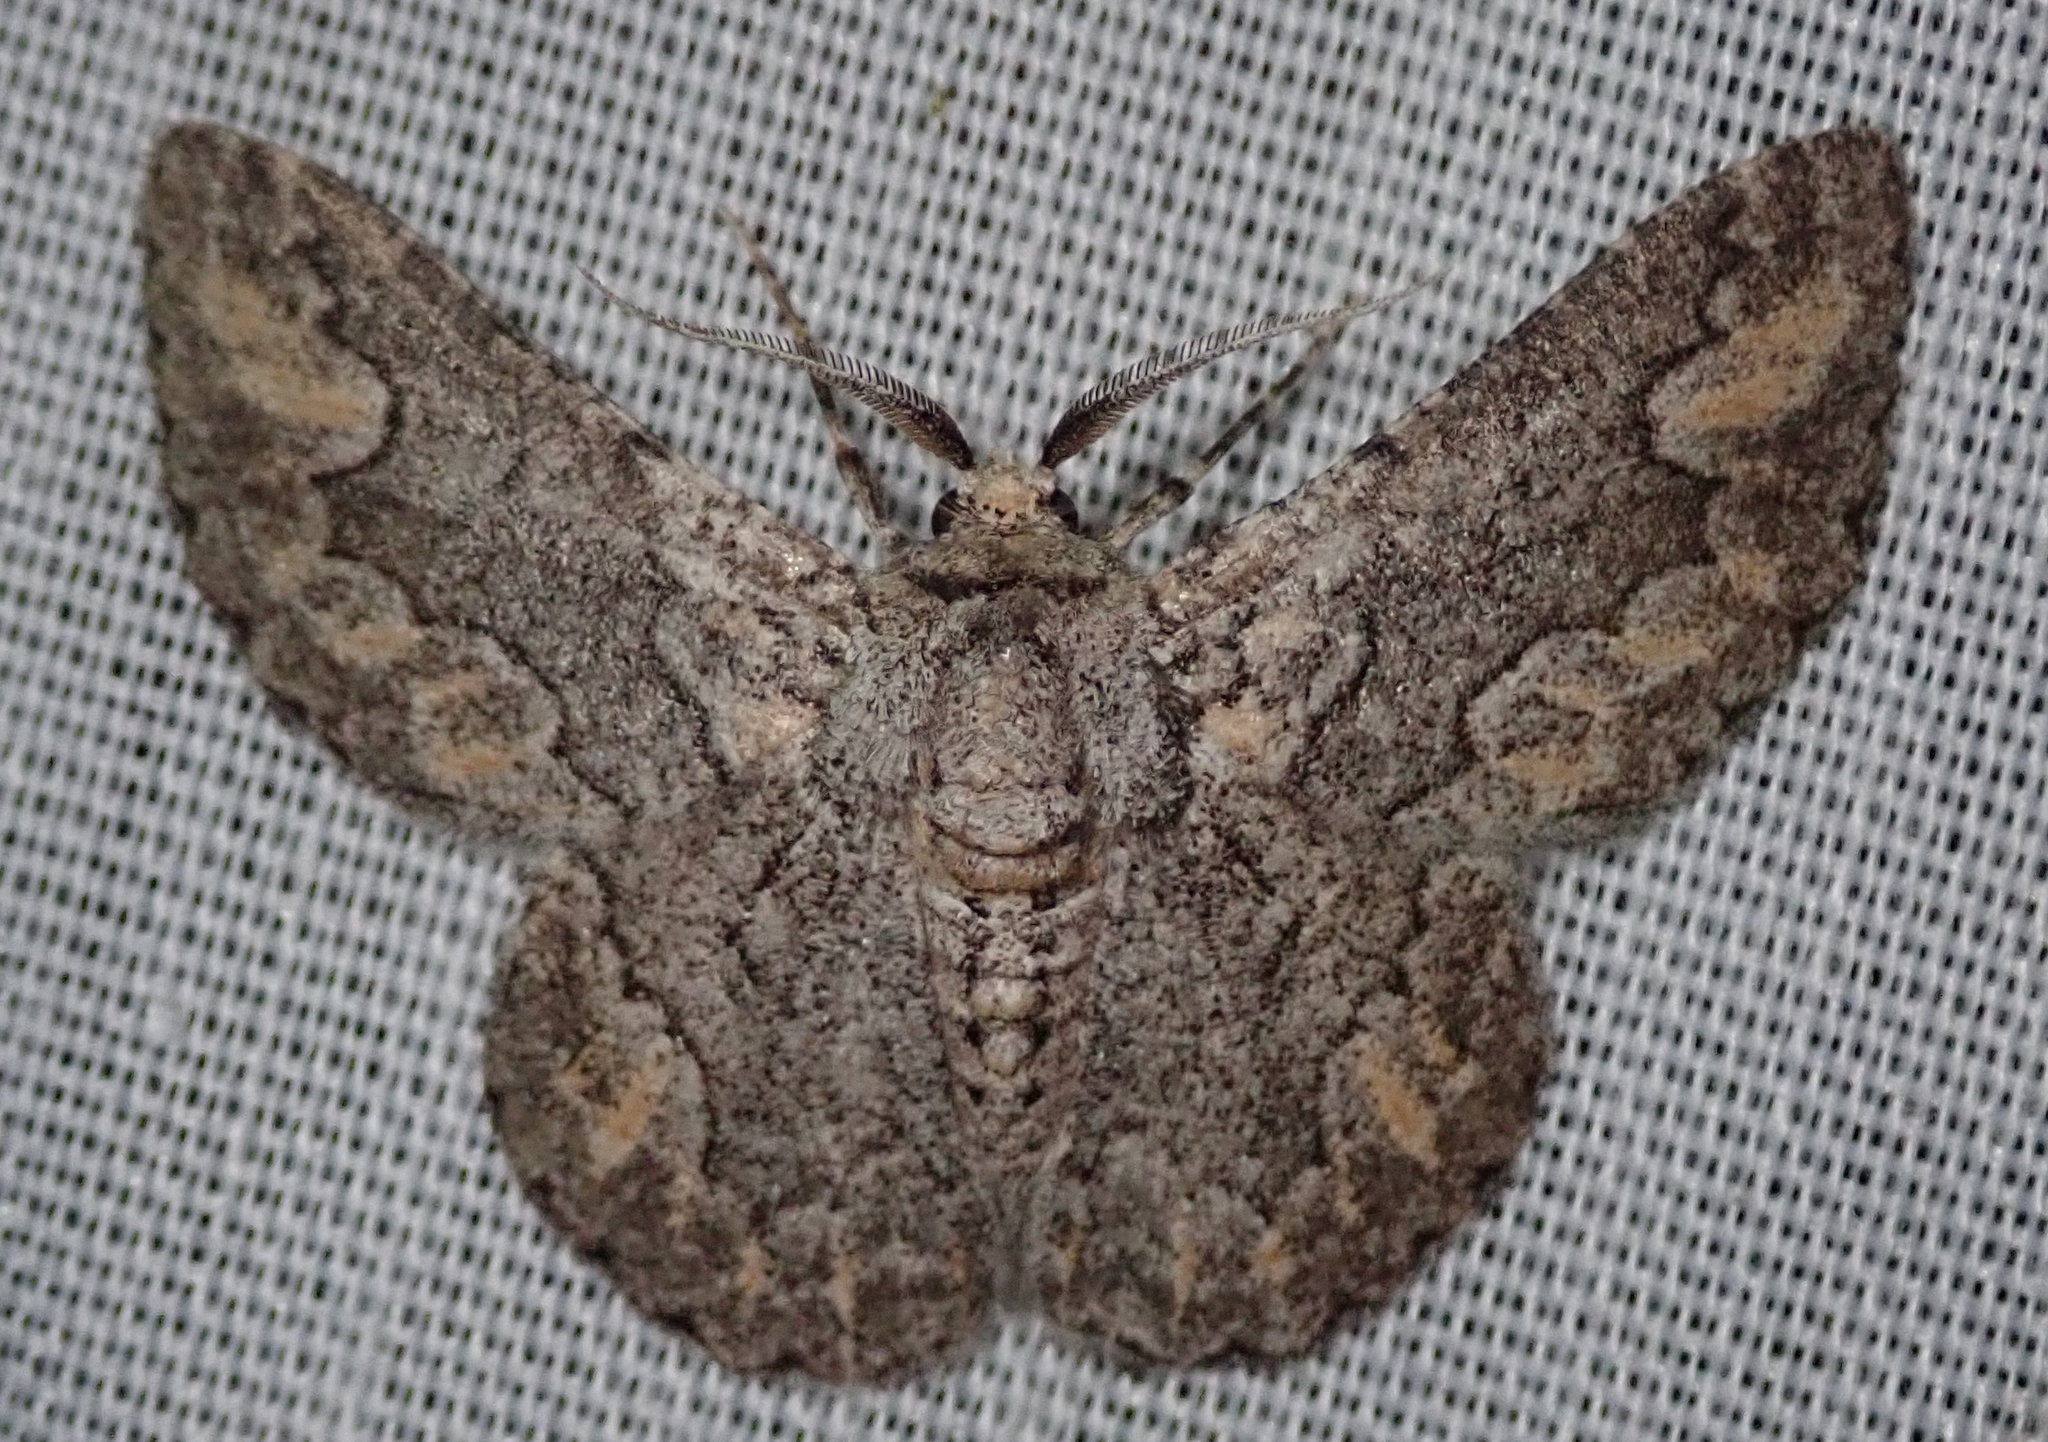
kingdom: Animalia
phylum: Arthropoda
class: Insecta
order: Lepidoptera
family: Geometridae
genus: Mictoschema
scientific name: Mictoschema swierstrai
